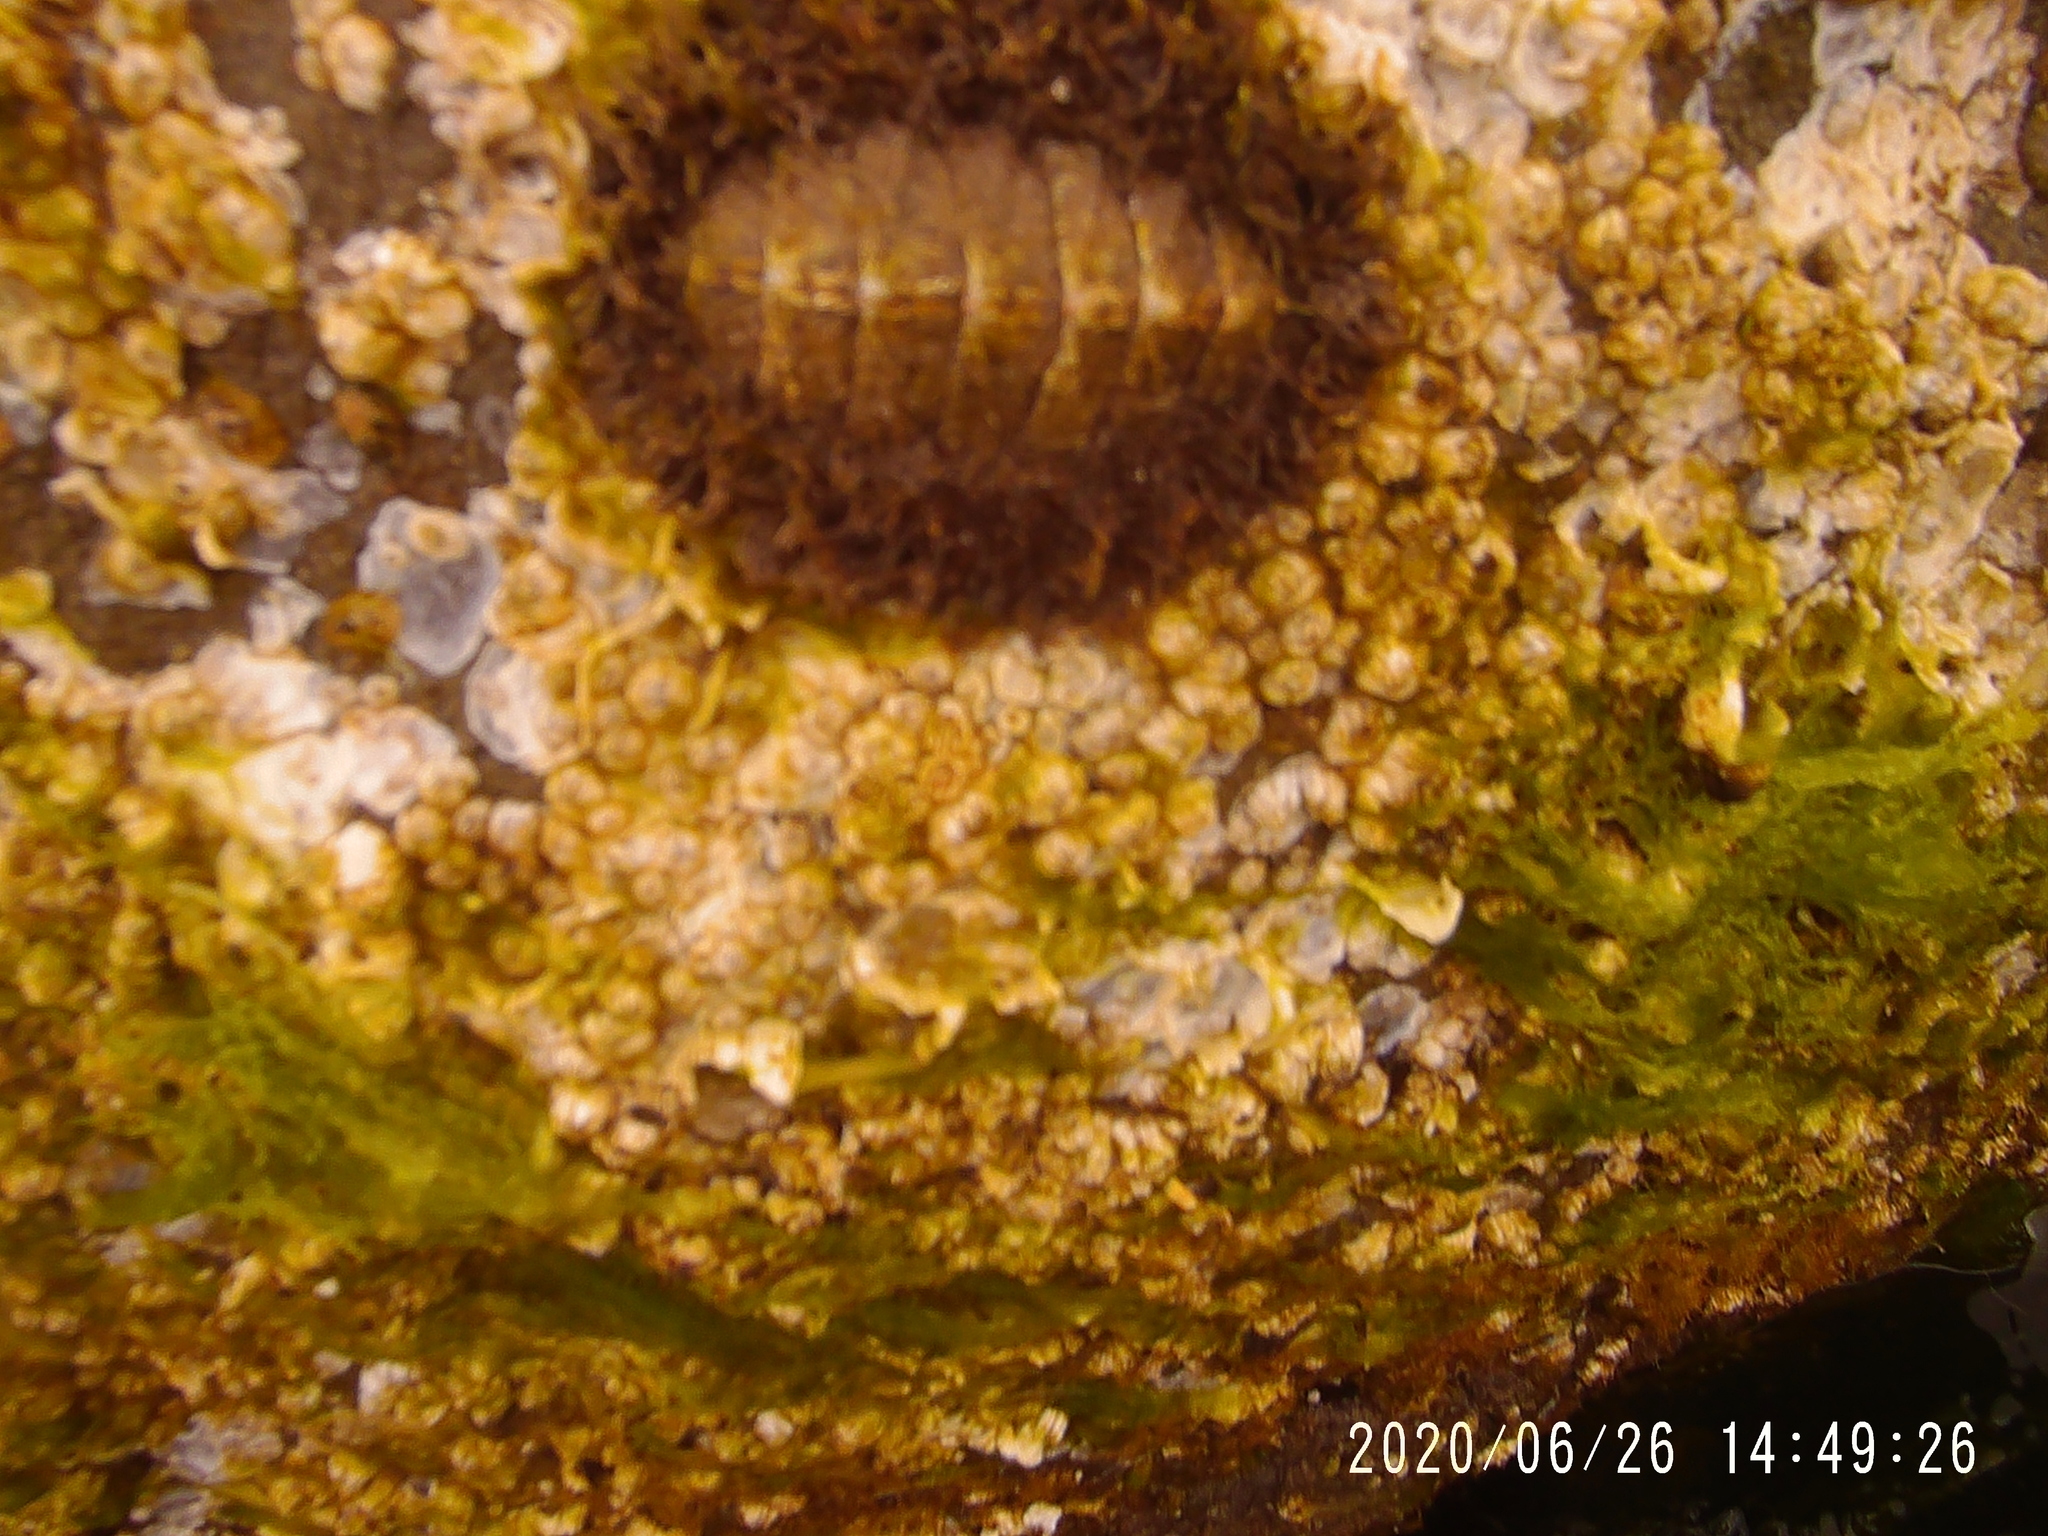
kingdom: Animalia
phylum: Mollusca
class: Polyplacophora
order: Chitonida
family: Mopaliidae
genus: Mopalia
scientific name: Mopalia muscosa
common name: Mossy chiton
